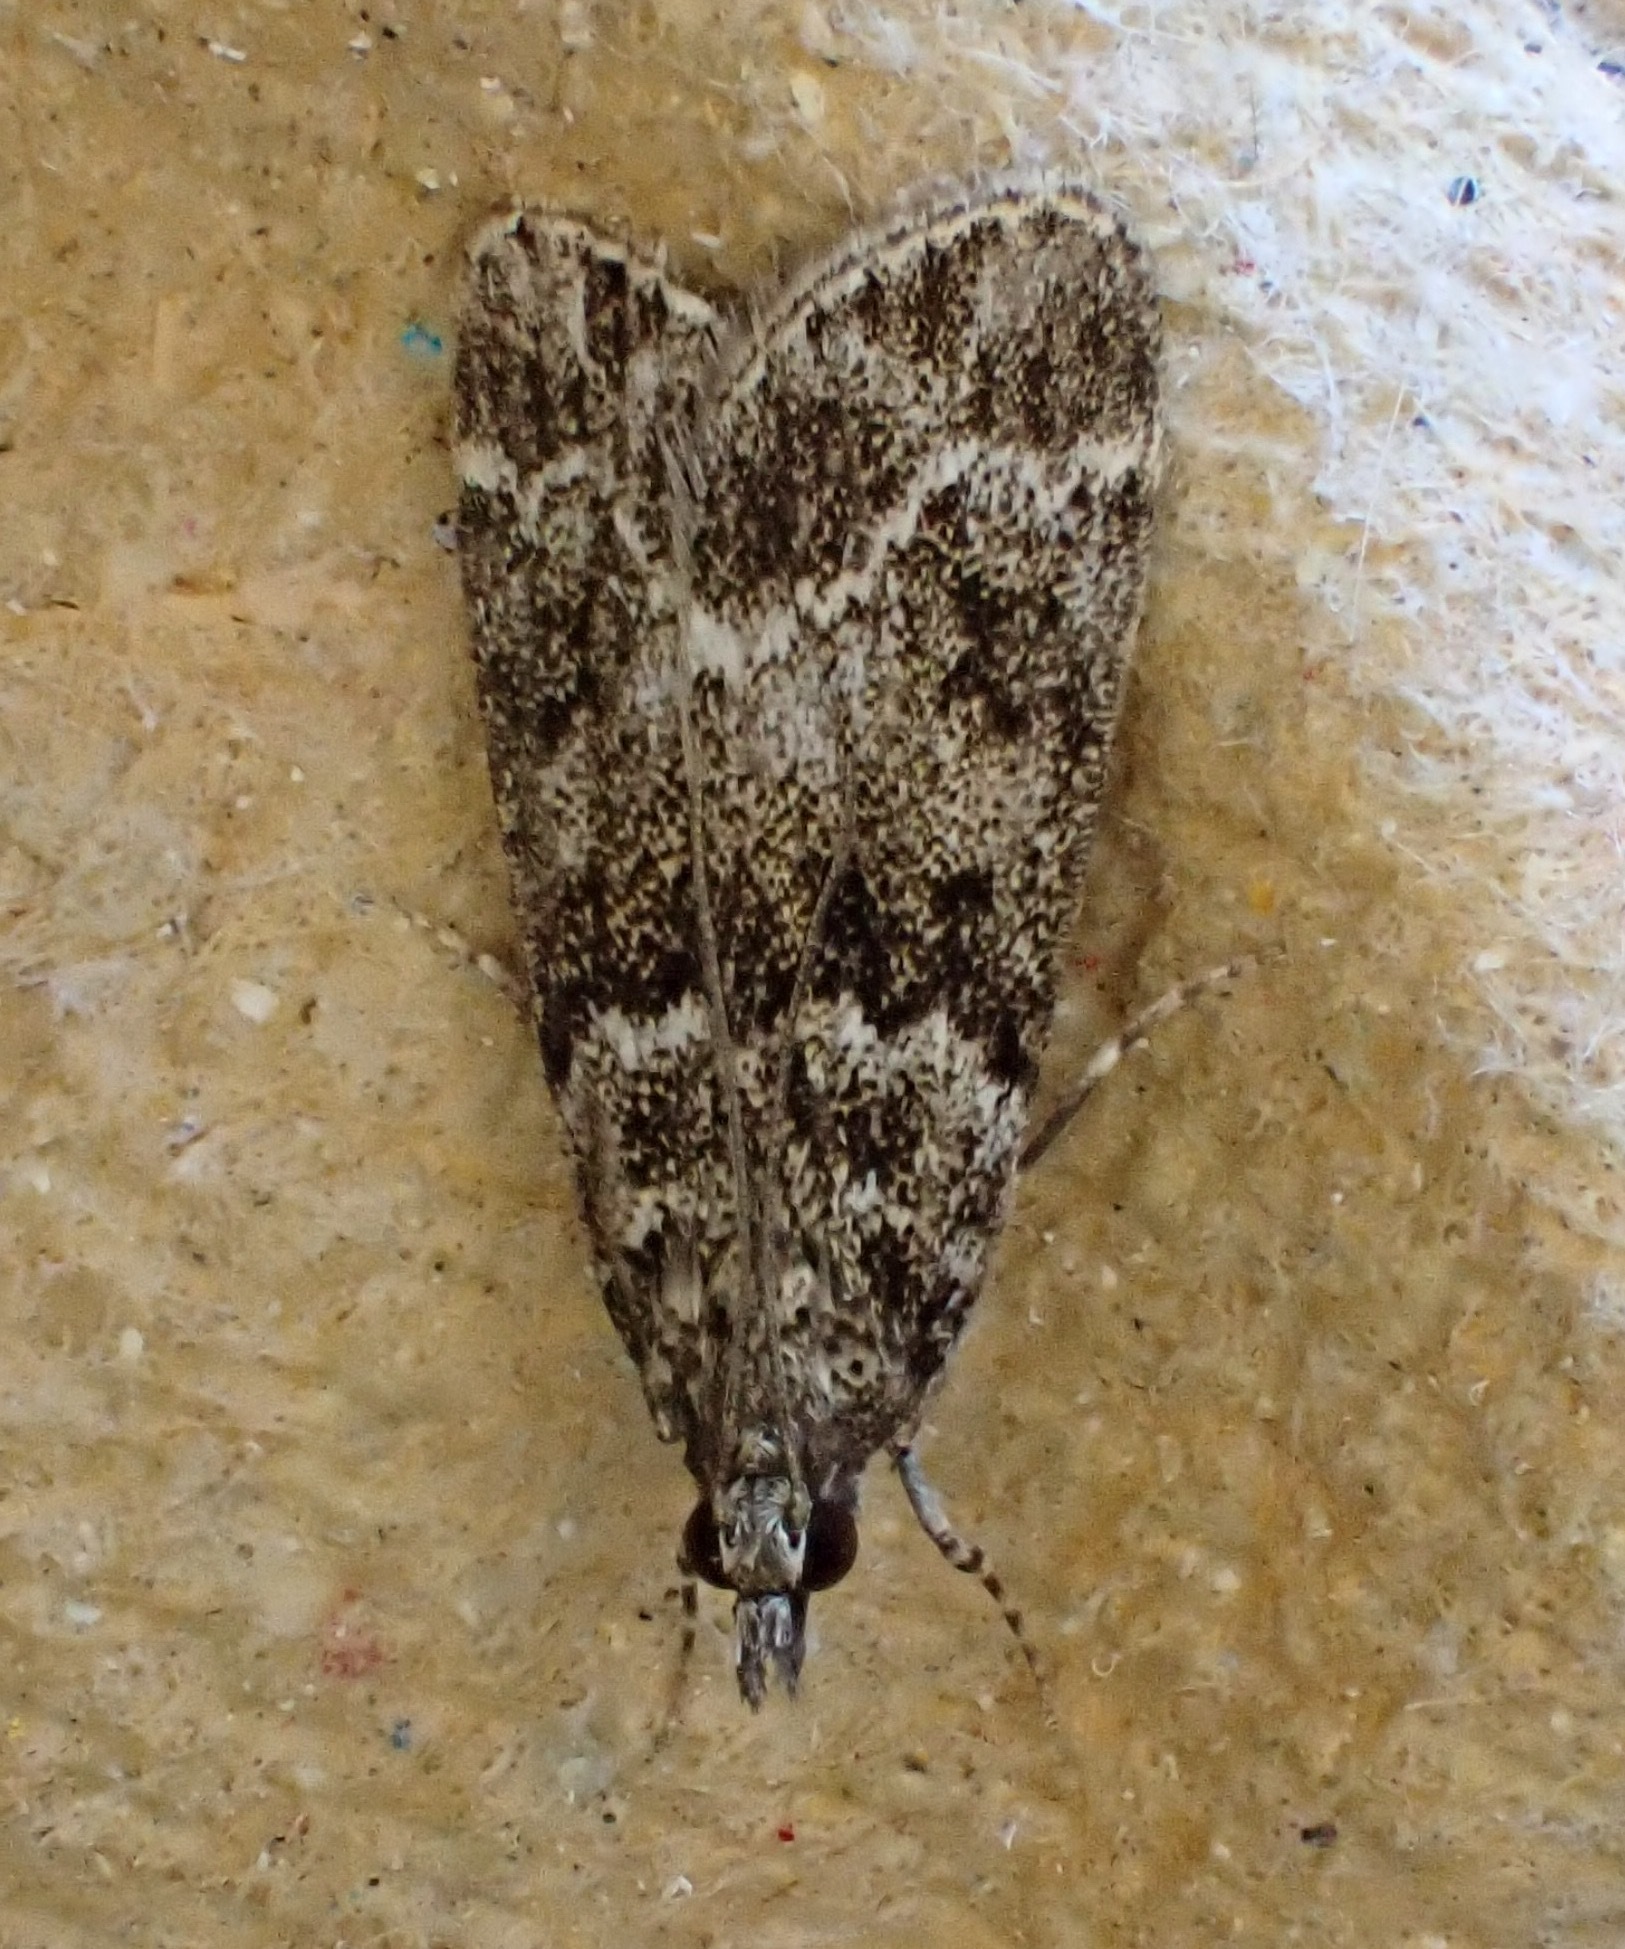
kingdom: Animalia
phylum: Arthropoda
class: Insecta
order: Lepidoptera
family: Crambidae
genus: Eudonia
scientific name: Eudonia mercurella
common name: Small grey
